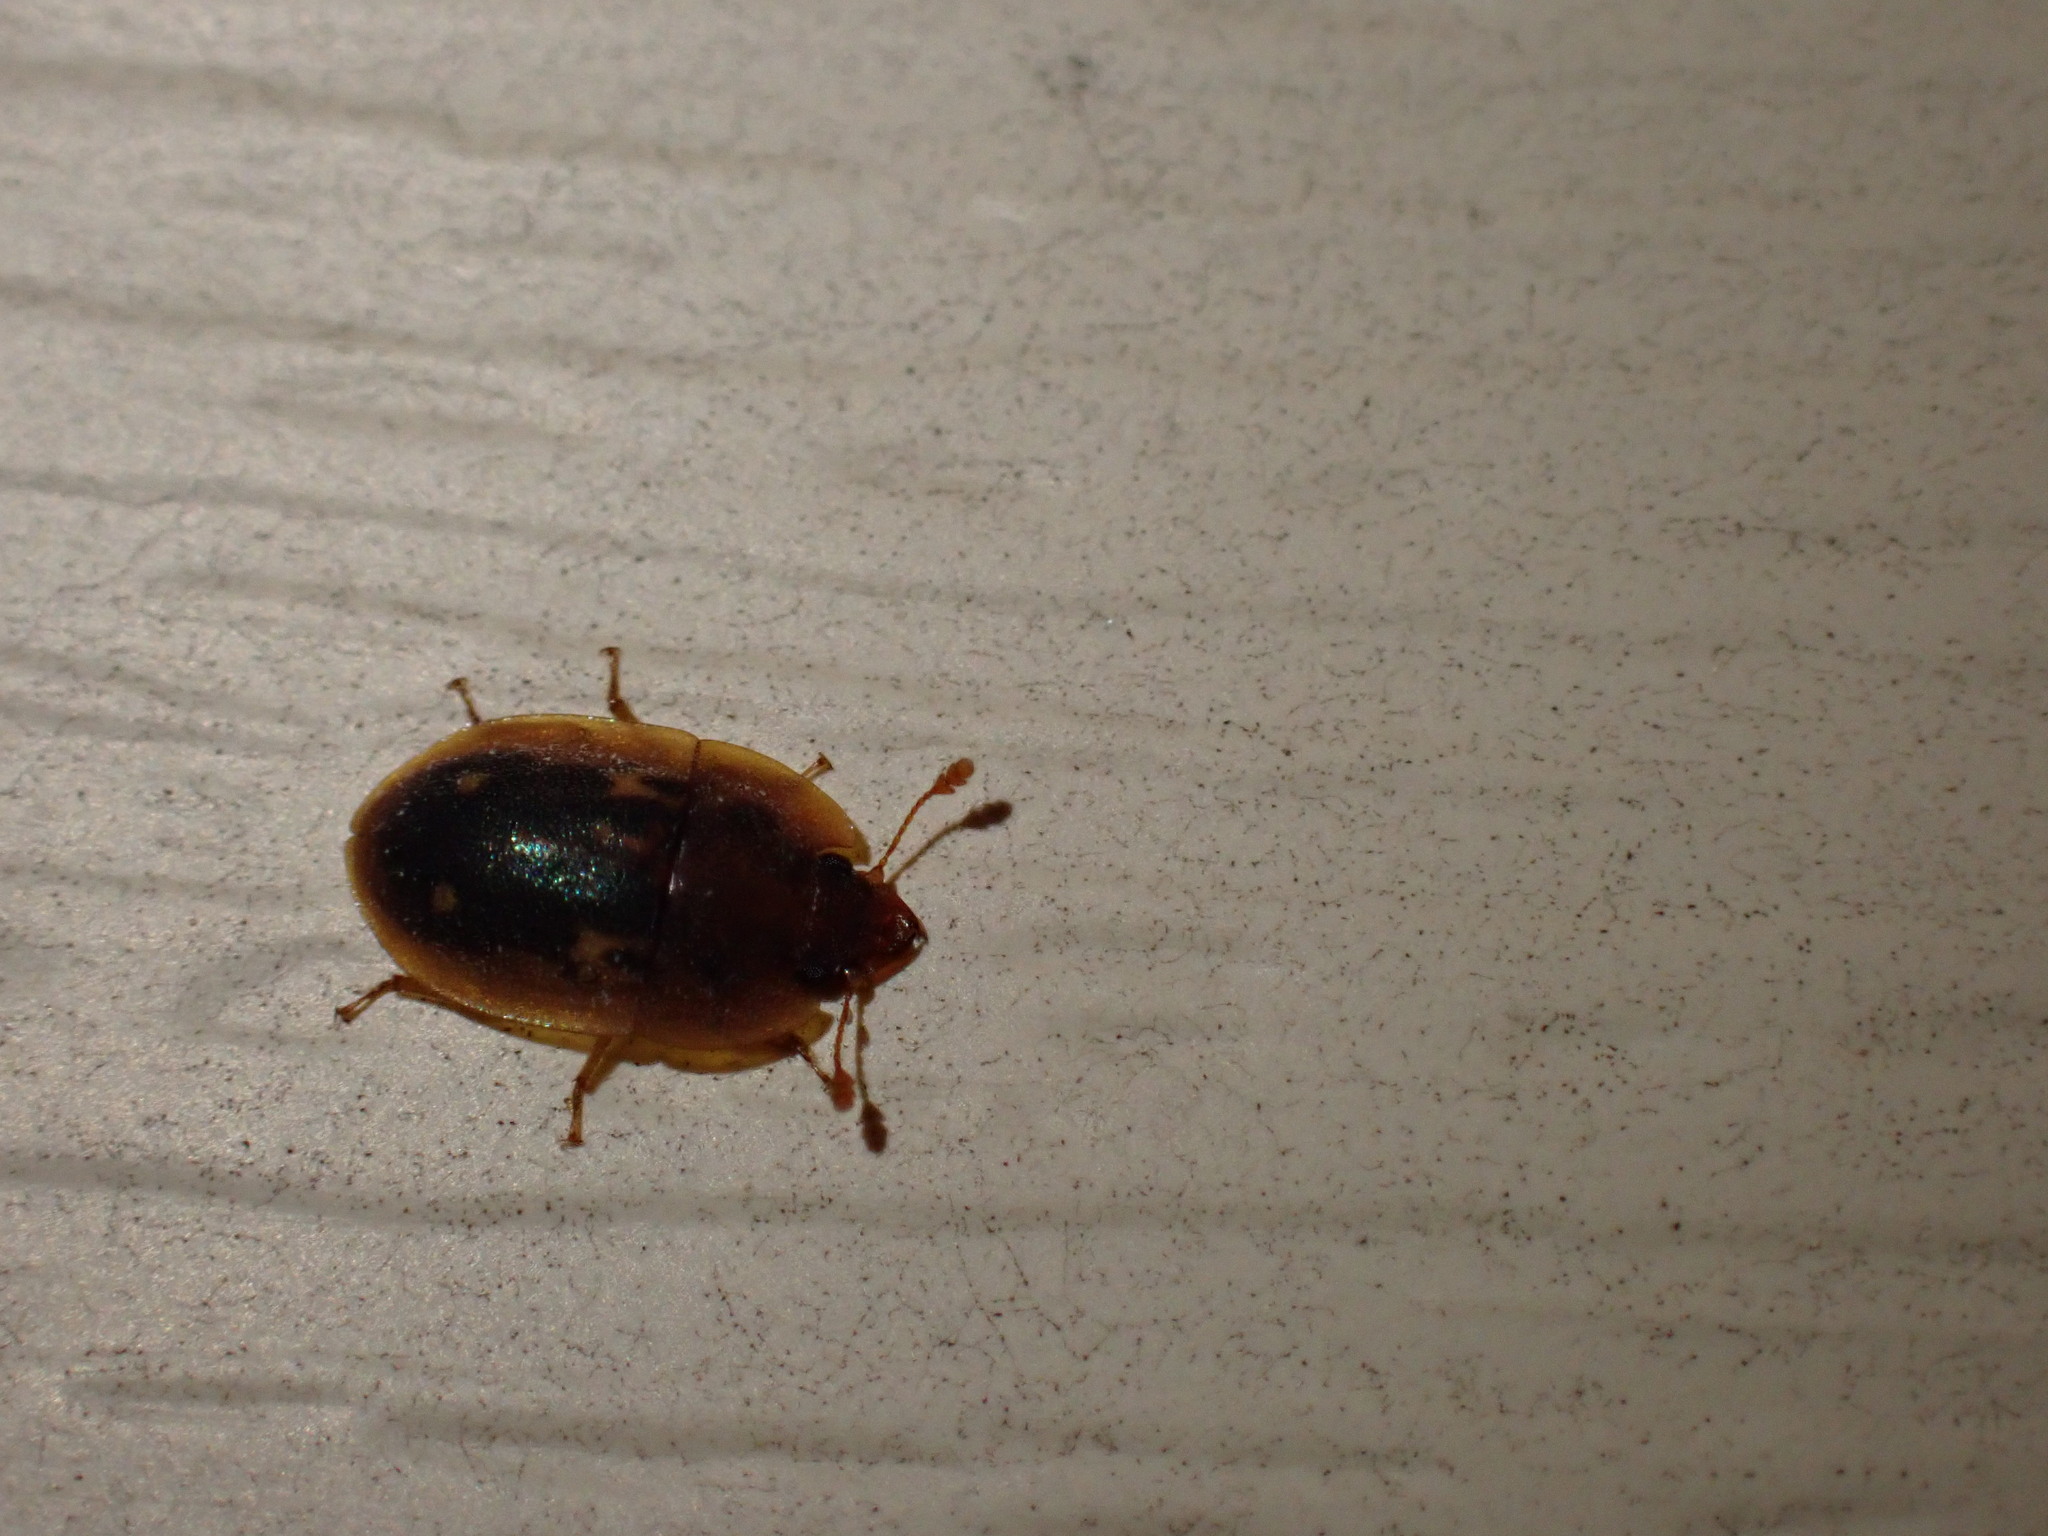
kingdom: Animalia
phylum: Arthropoda
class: Insecta
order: Coleoptera
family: Nitidulidae
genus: Prometopia
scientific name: Prometopia sexmaculata
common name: Six-spotted sap-feeding beetle
